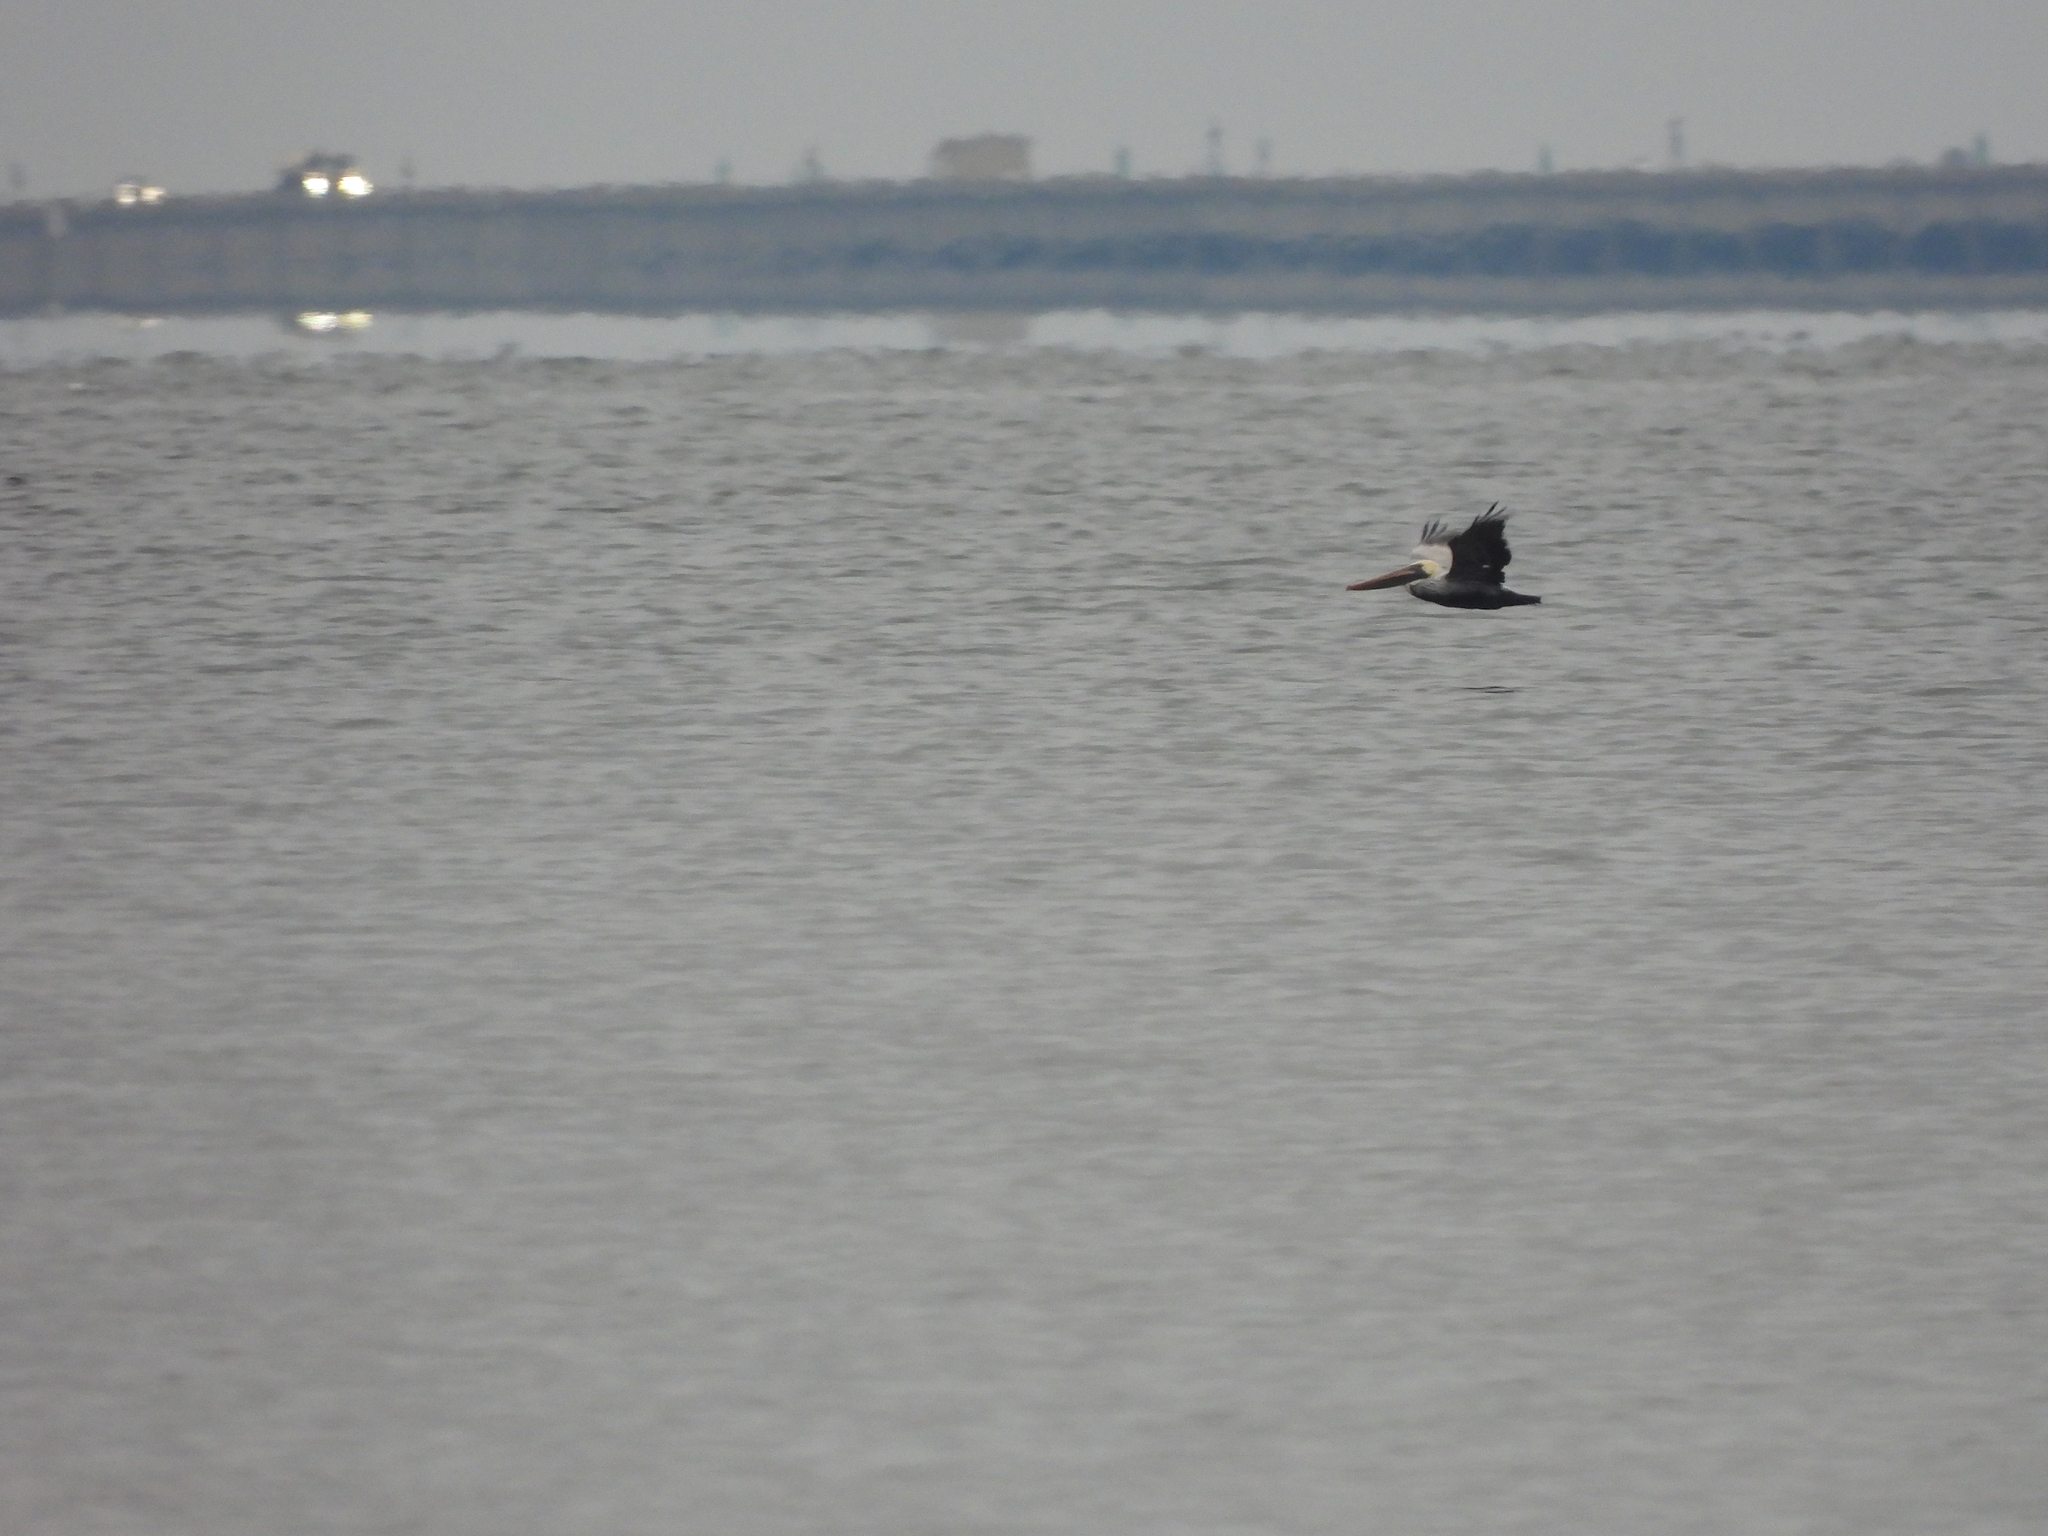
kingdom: Animalia
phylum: Chordata
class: Aves
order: Pelecaniformes
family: Pelecanidae
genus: Pelecanus
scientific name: Pelecanus occidentalis
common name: Brown pelican
